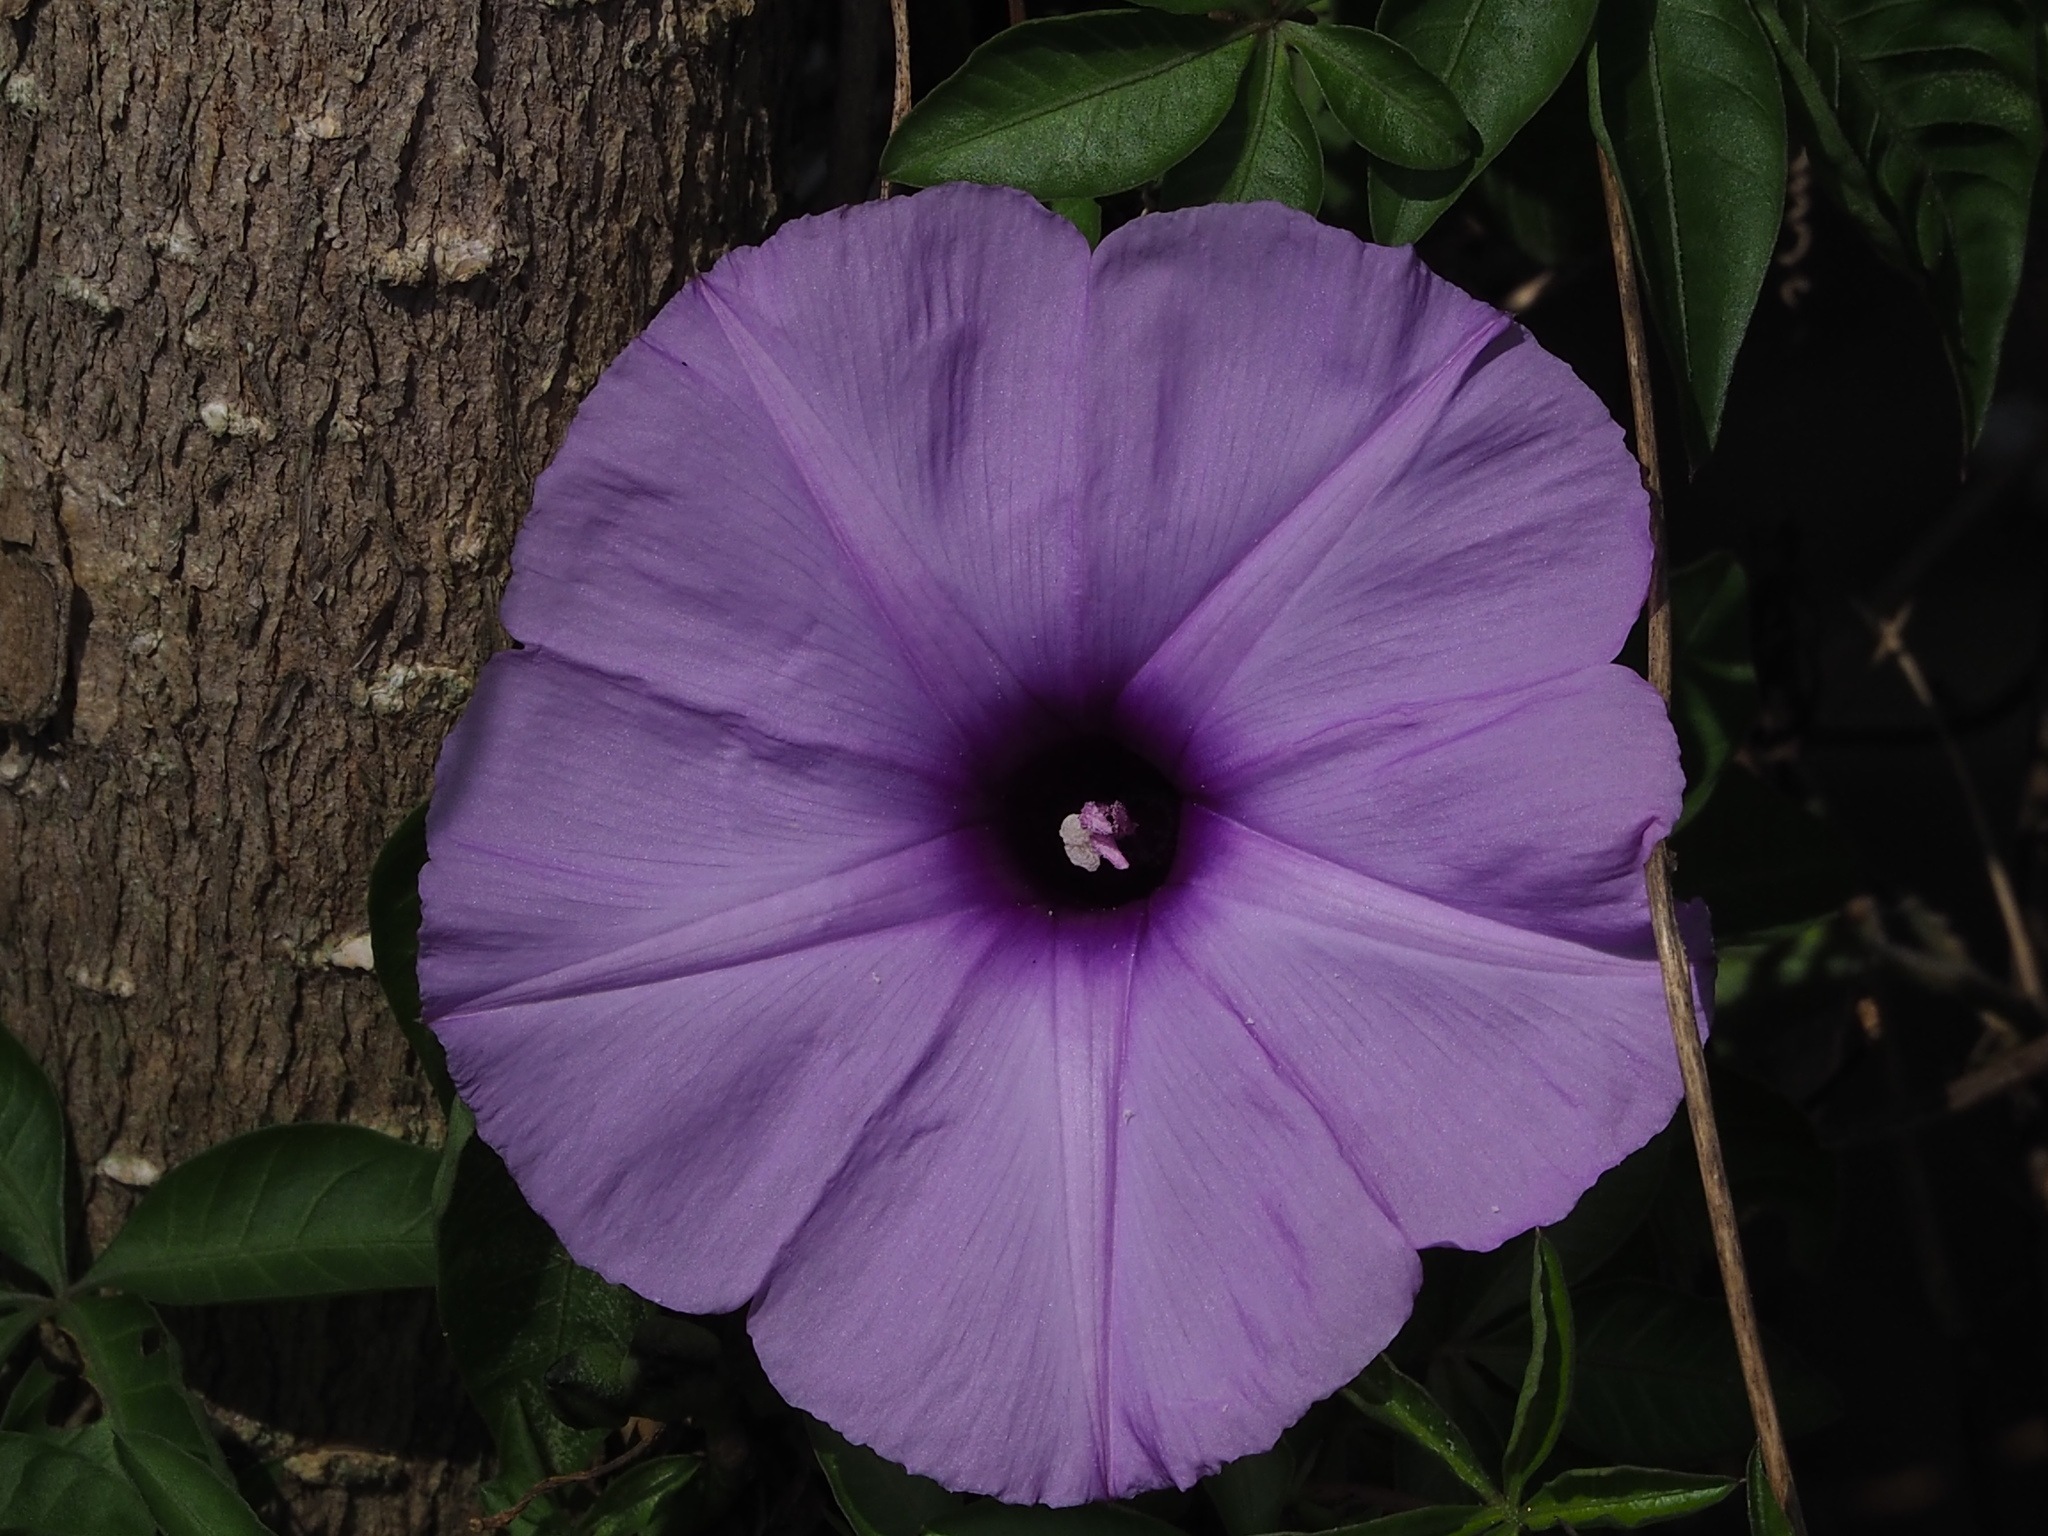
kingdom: Plantae
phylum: Tracheophyta
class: Magnoliopsida
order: Solanales
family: Convolvulaceae
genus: Ipomoea
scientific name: Ipomoea cairica
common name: Mile a minute vine
